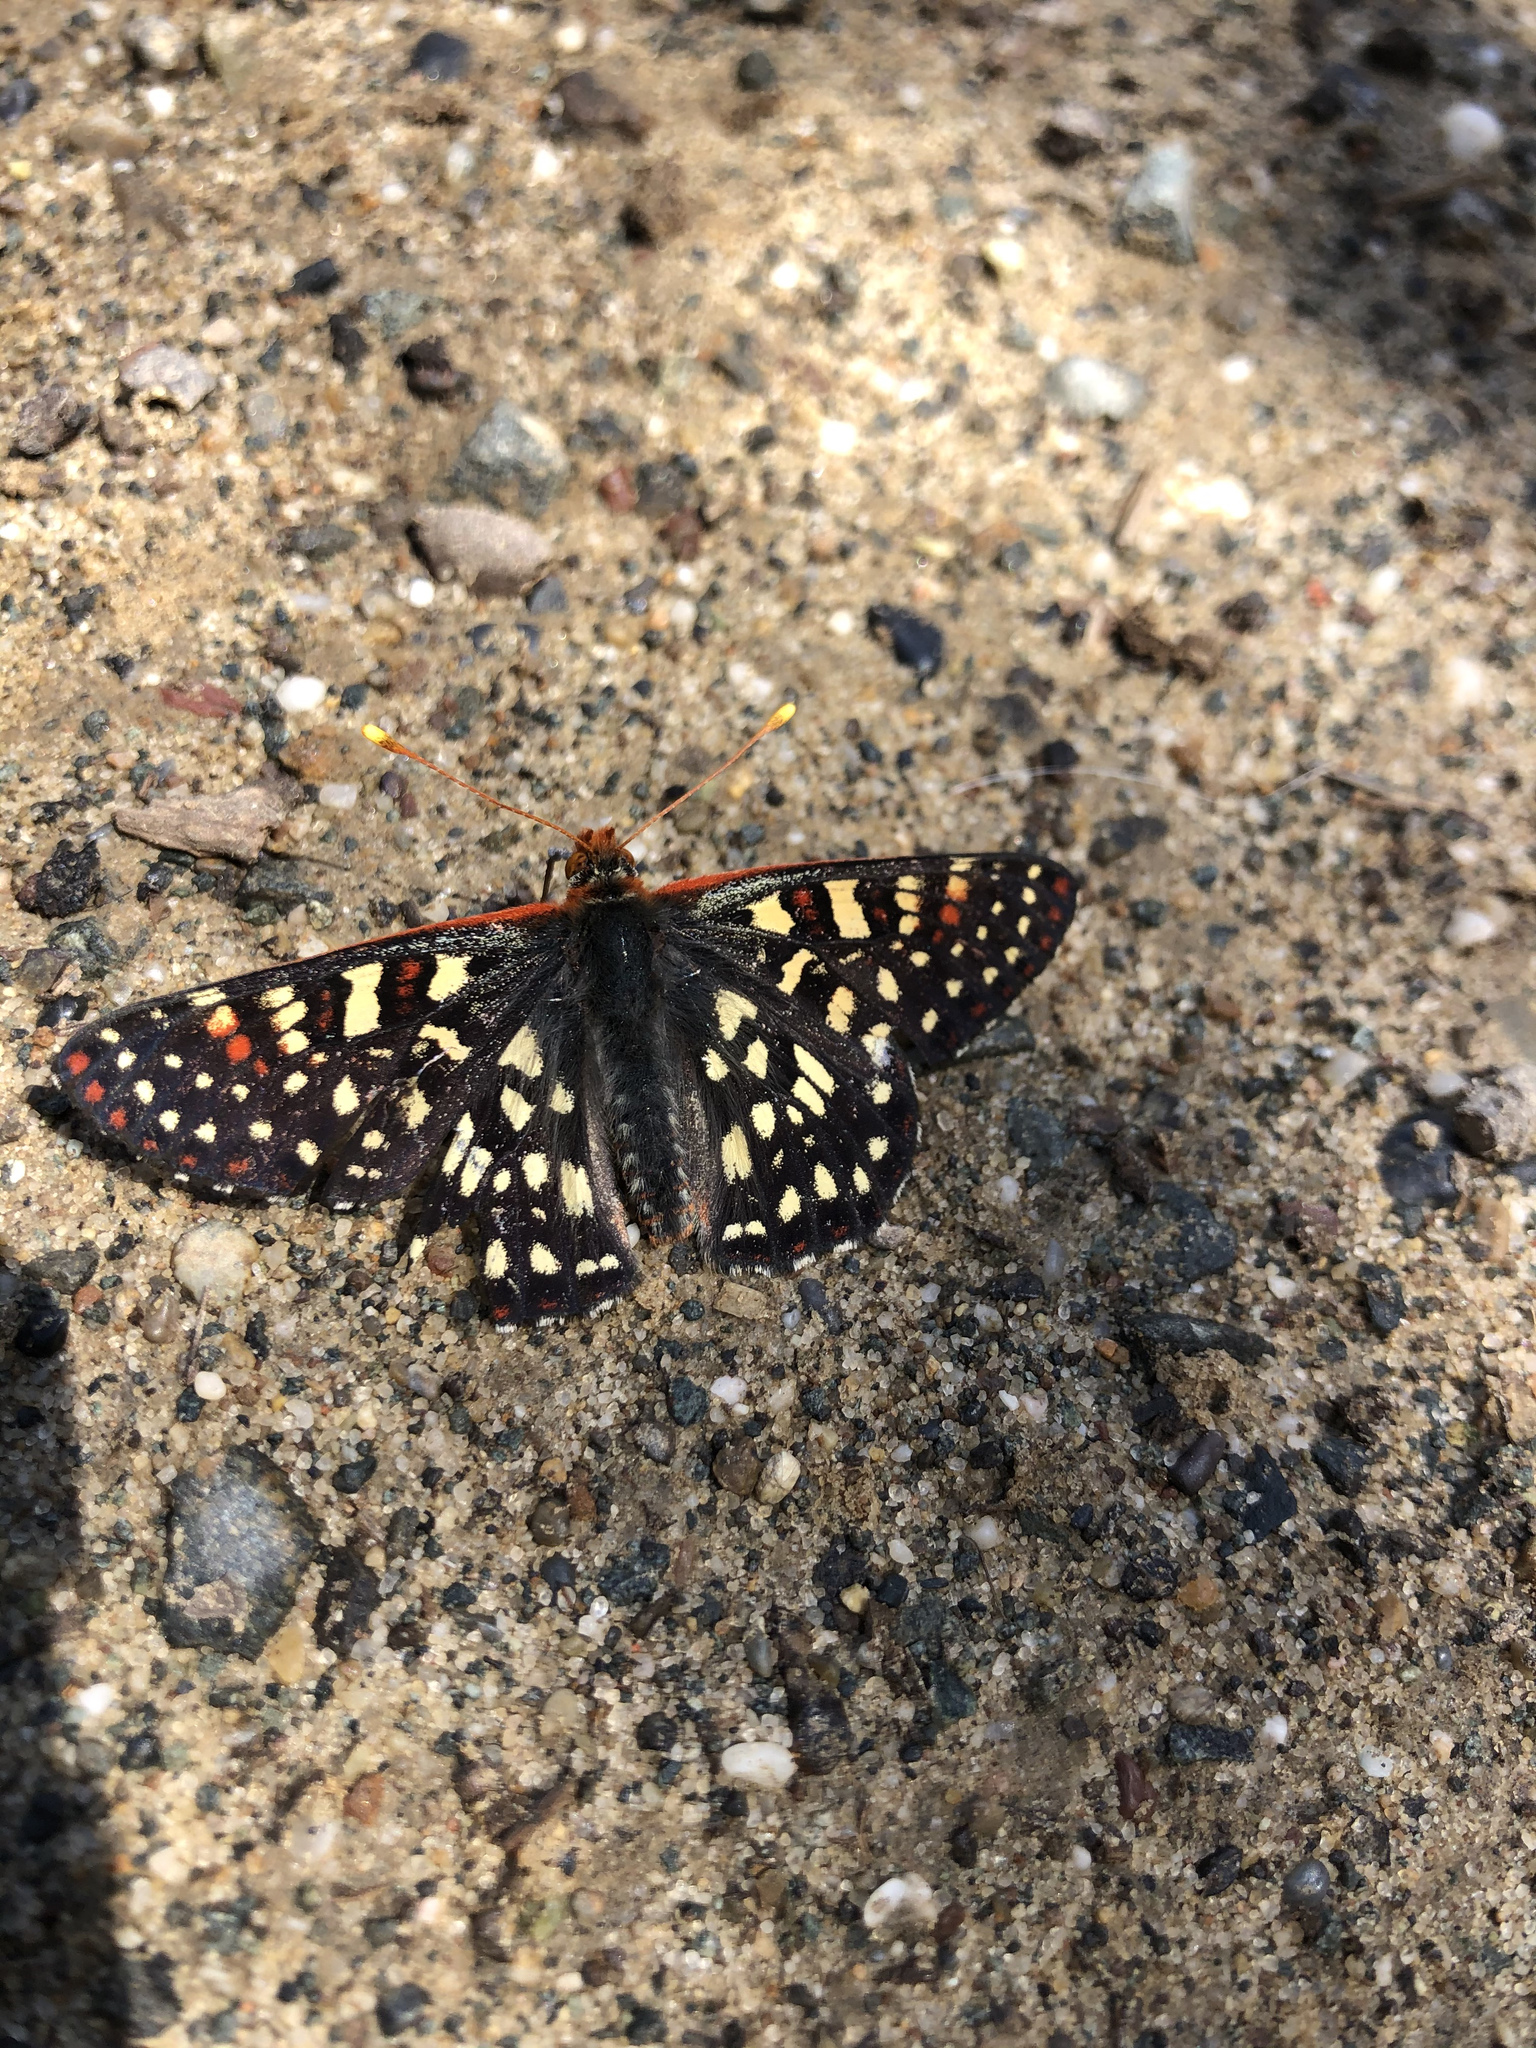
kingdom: Animalia
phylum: Arthropoda
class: Insecta
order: Lepidoptera
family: Nymphalidae
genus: Occidryas
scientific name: Occidryas chalcedona
